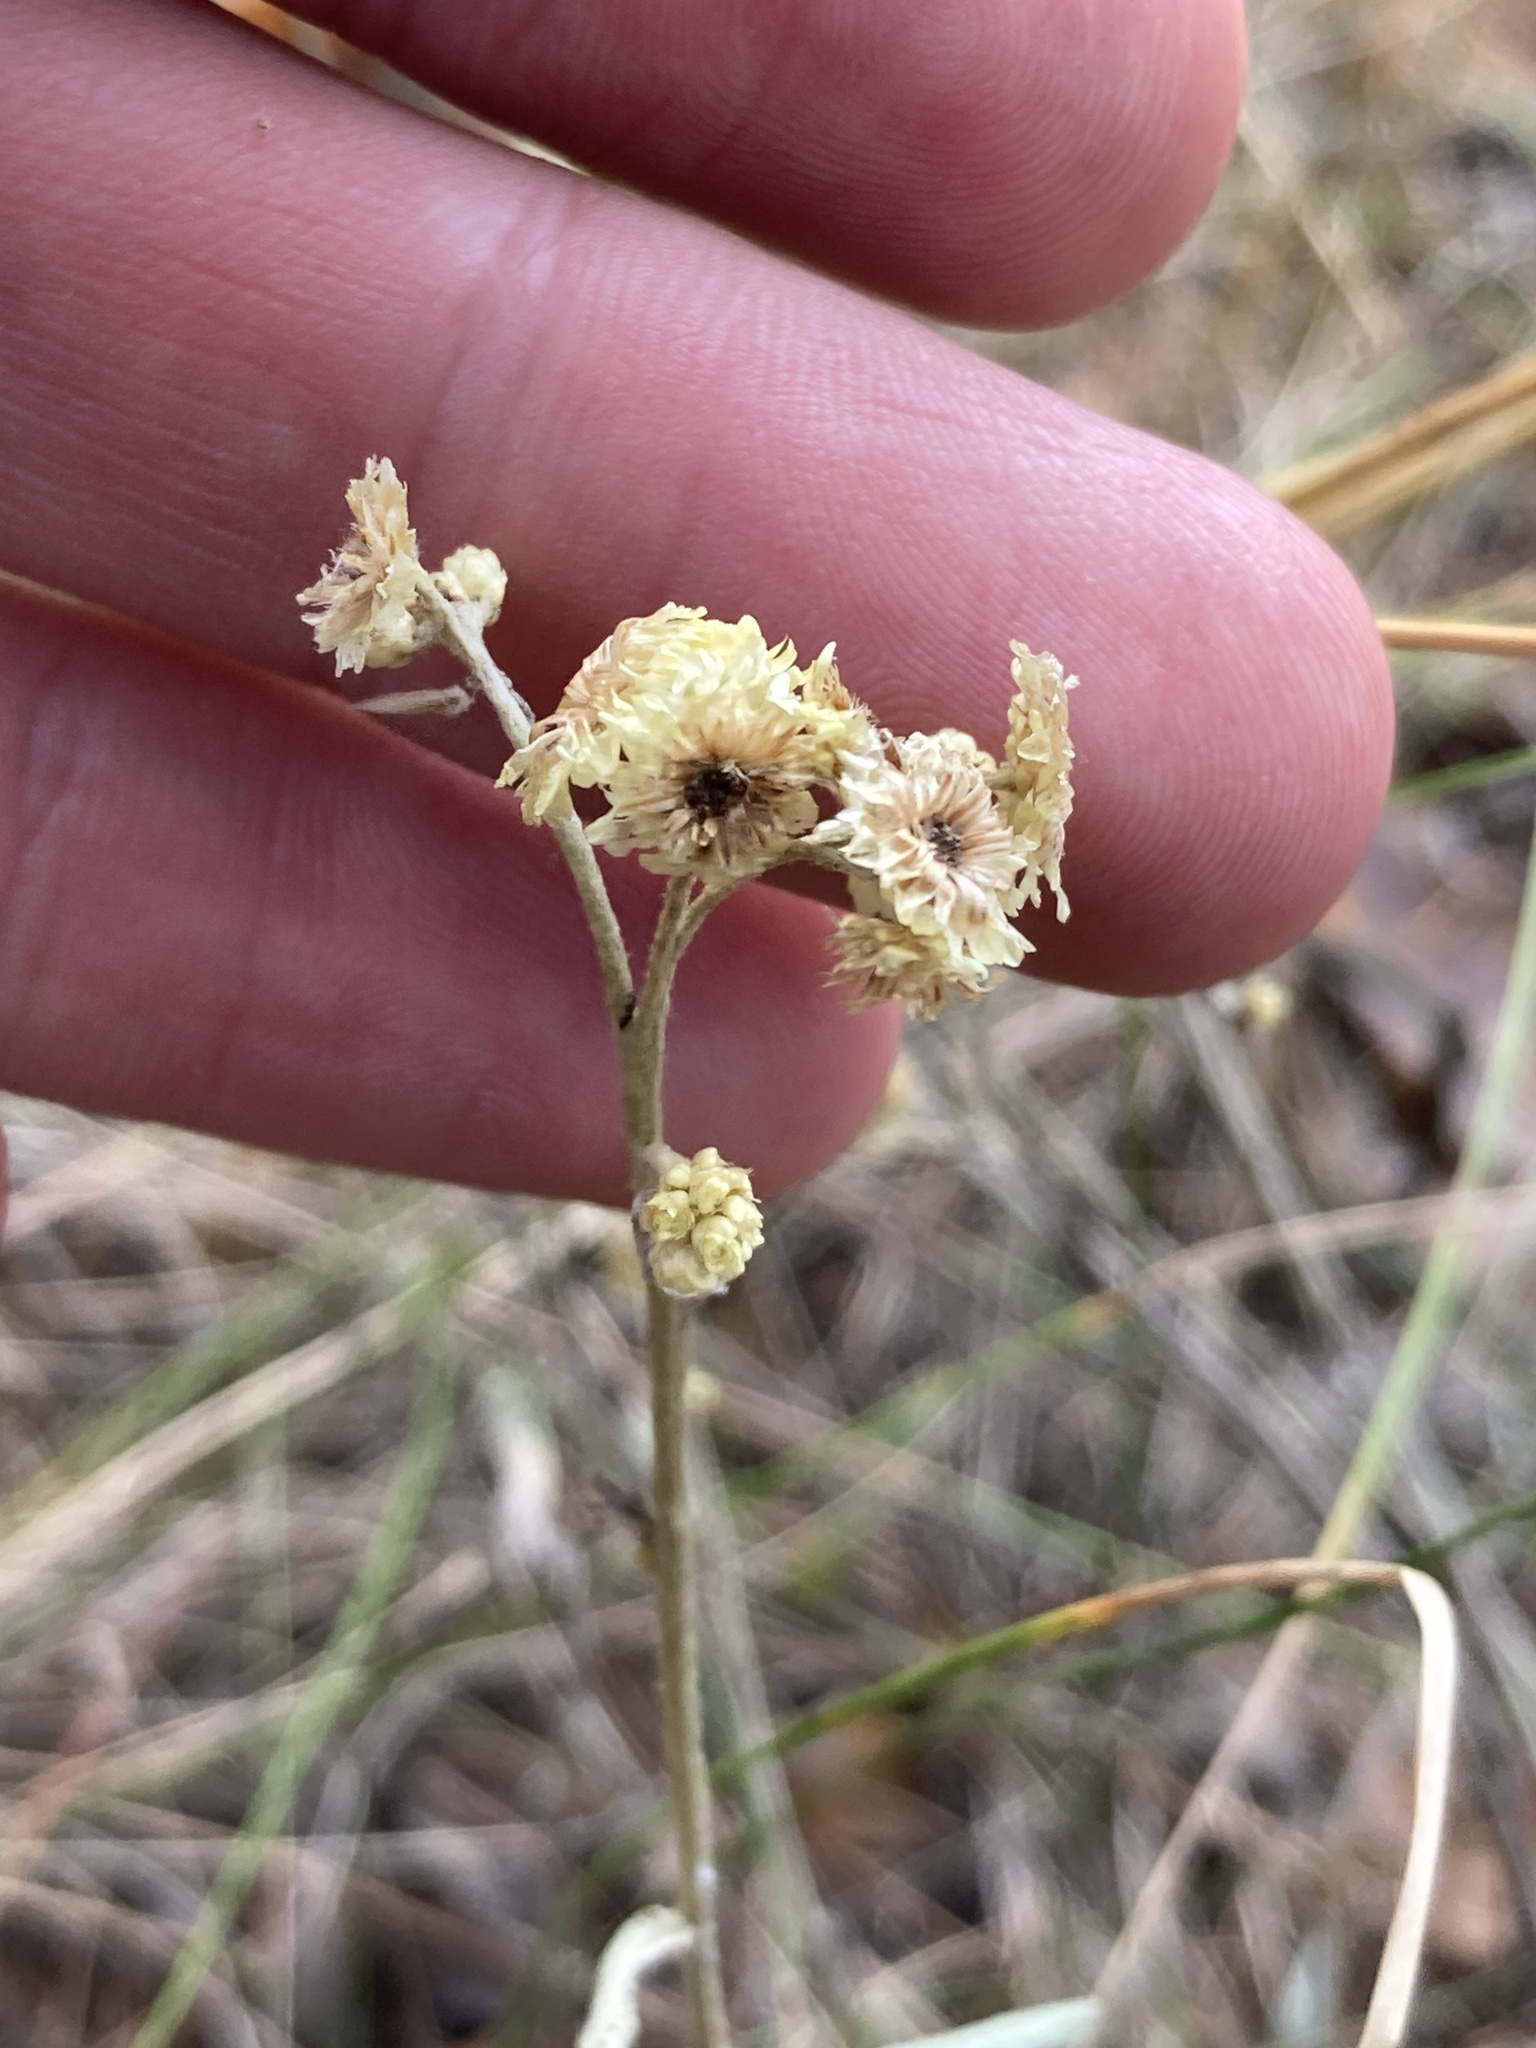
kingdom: Plantae
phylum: Tracheophyta
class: Magnoliopsida
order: Asterales
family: Asteraceae
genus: Helichrysum
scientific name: Helichrysum arenarium
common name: Strawflower
